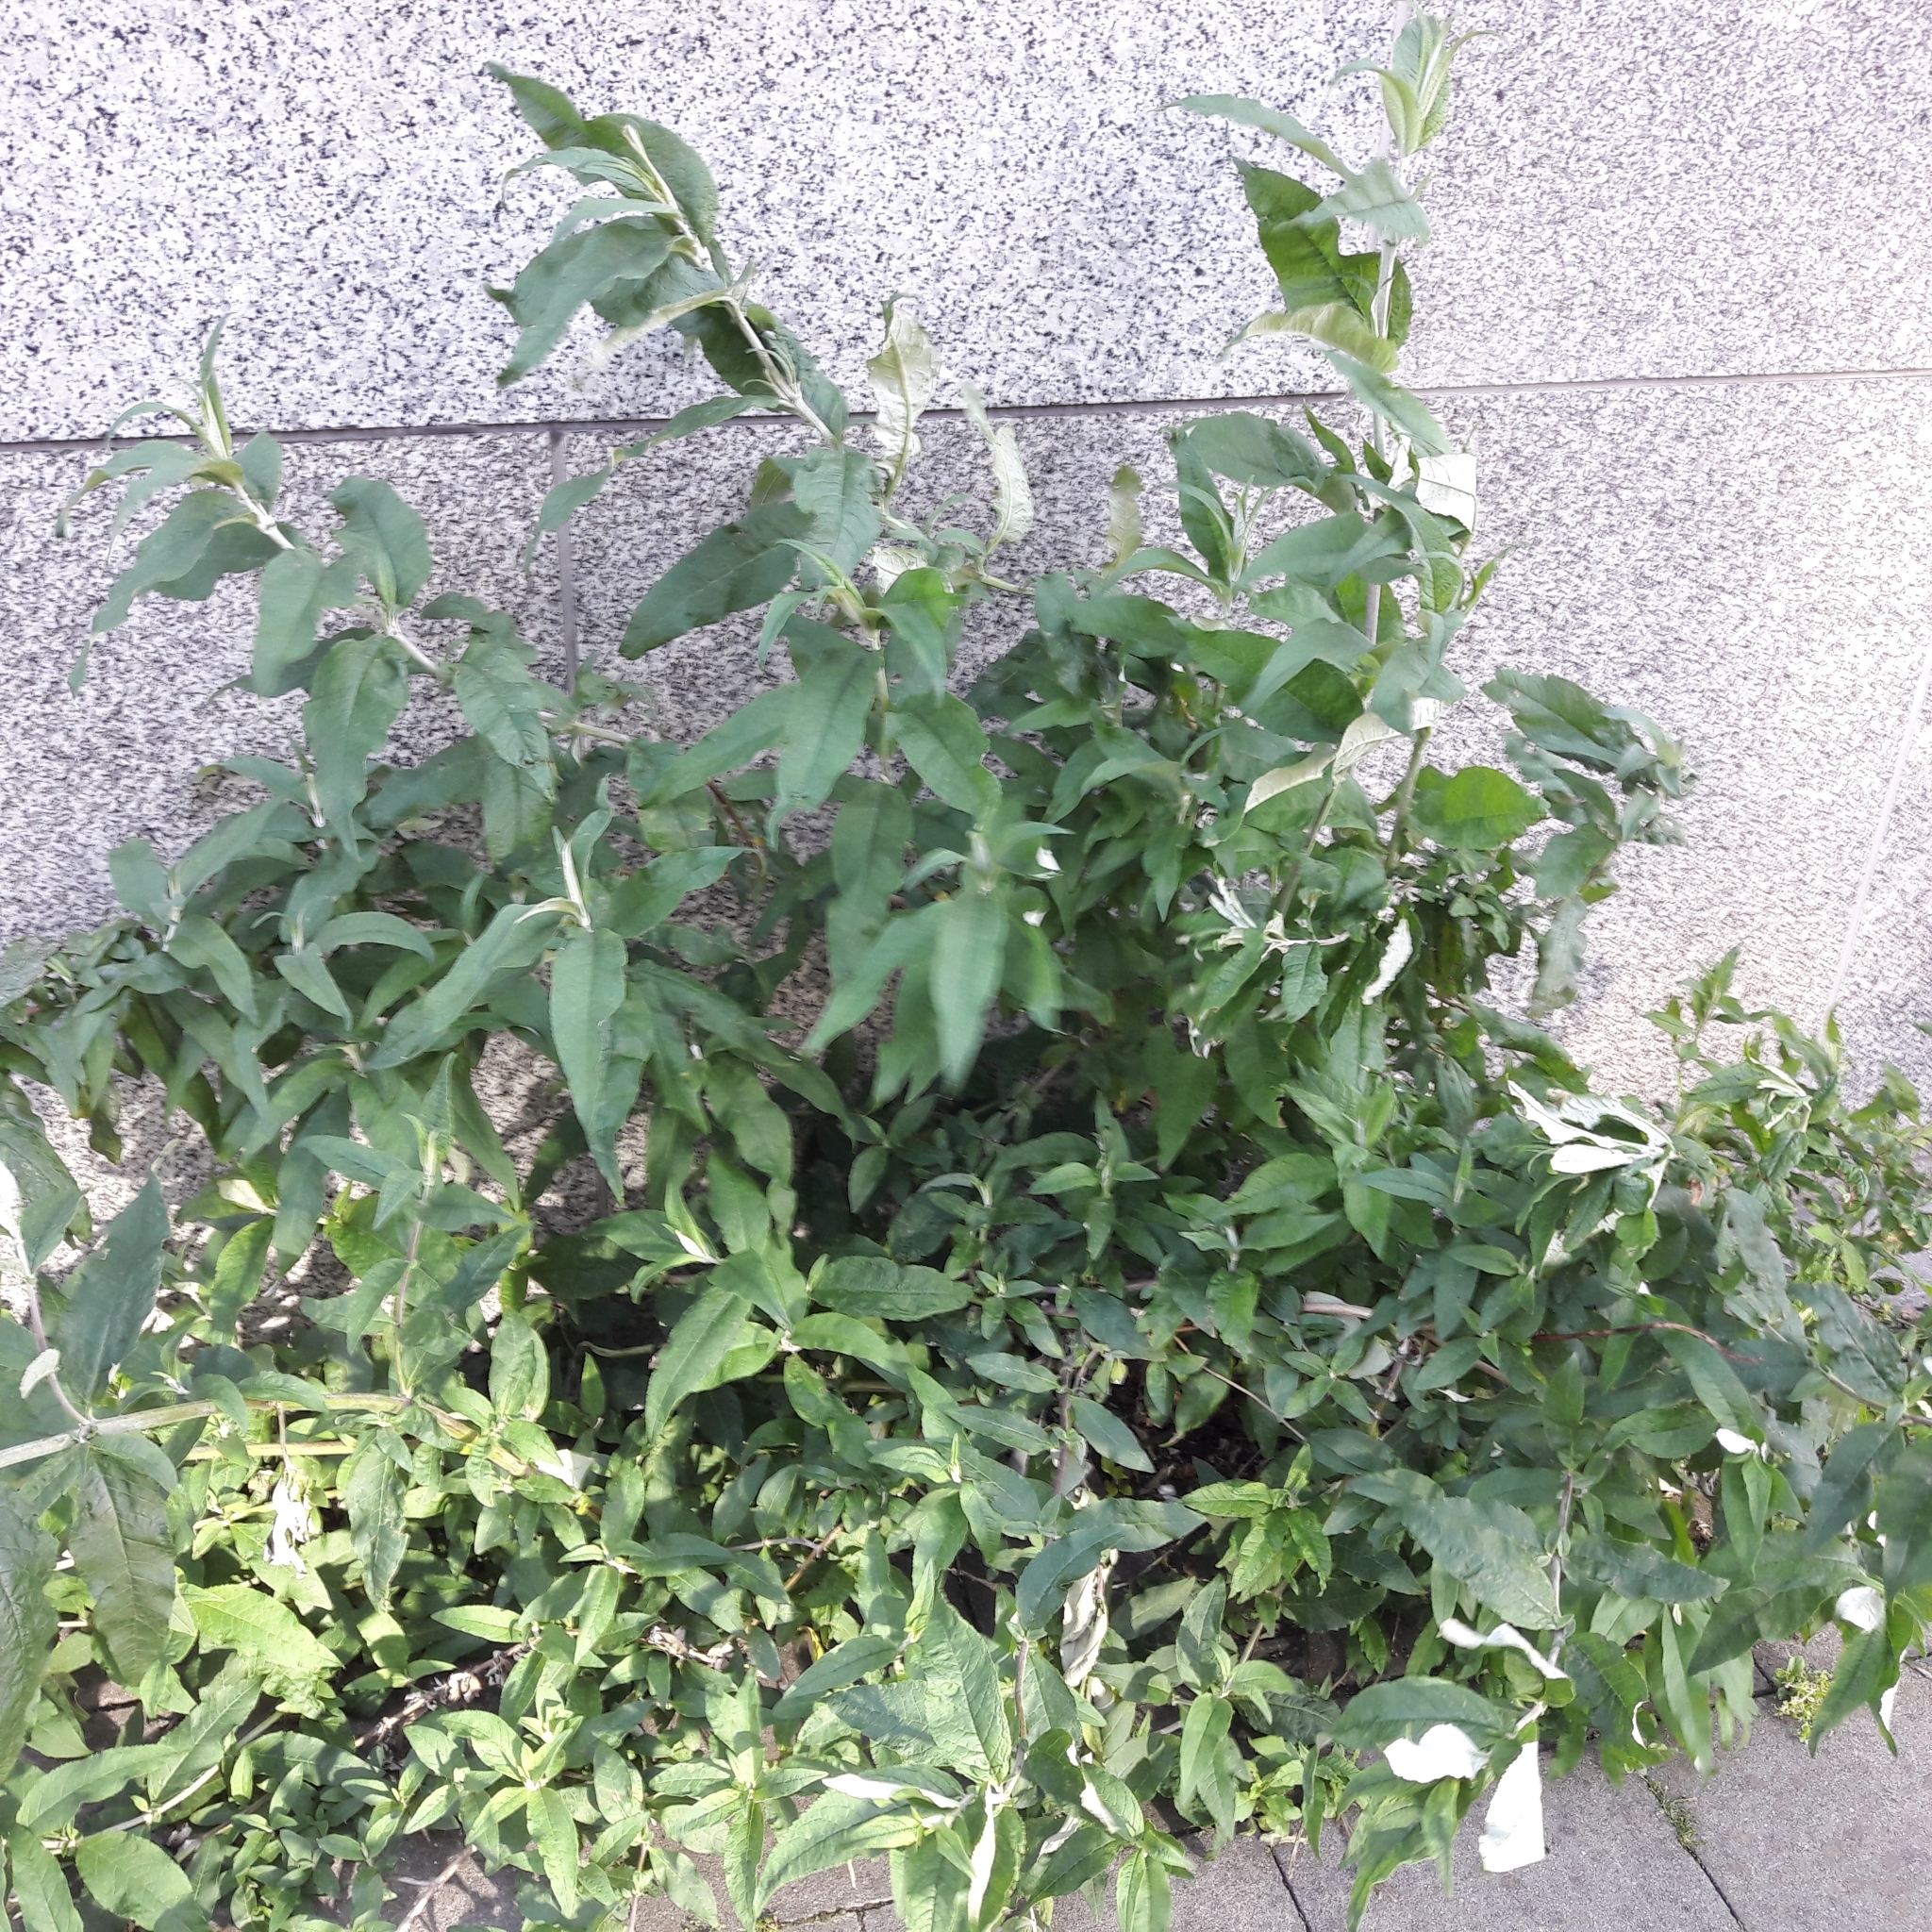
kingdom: Plantae
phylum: Tracheophyta
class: Magnoliopsida
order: Lamiales
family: Scrophulariaceae
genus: Buddleja
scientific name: Buddleja davidii
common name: Butterfly-bush
